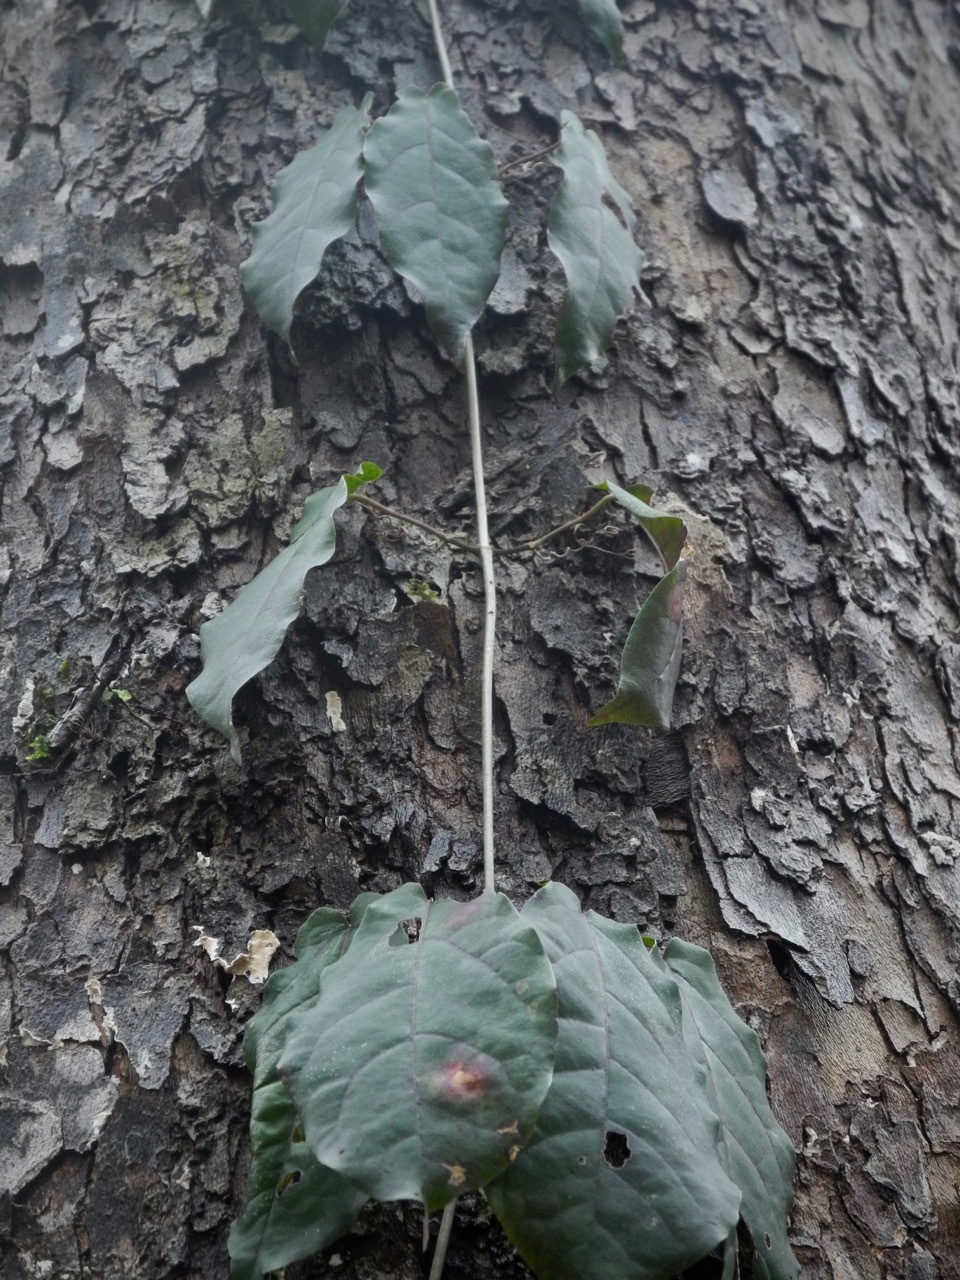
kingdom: Plantae
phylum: Tracheophyta
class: Magnoliopsida
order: Lamiales
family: Bignoniaceae
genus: Bignonia
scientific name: Bignonia capreolata
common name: Crossvine
